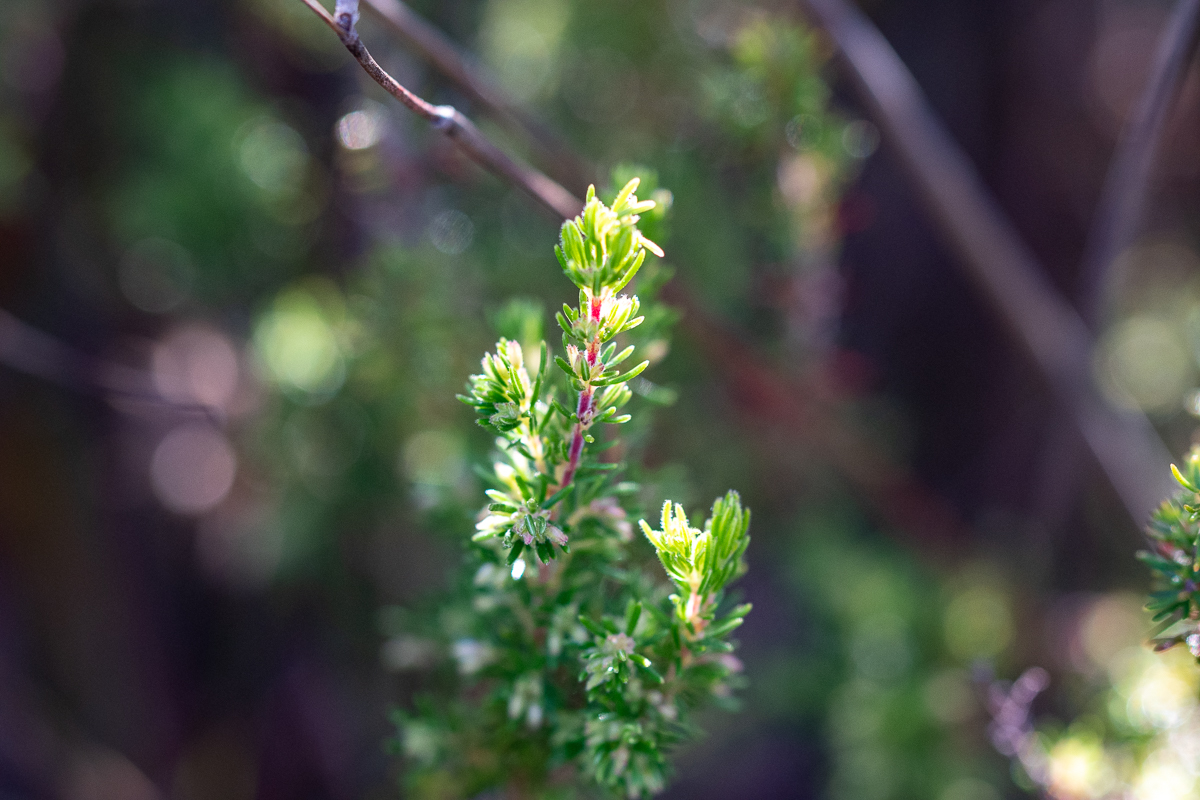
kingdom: Plantae
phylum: Tracheophyta
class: Magnoliopsida
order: Ericales
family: Ericaceae
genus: Erica
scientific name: Erica intervallaris
